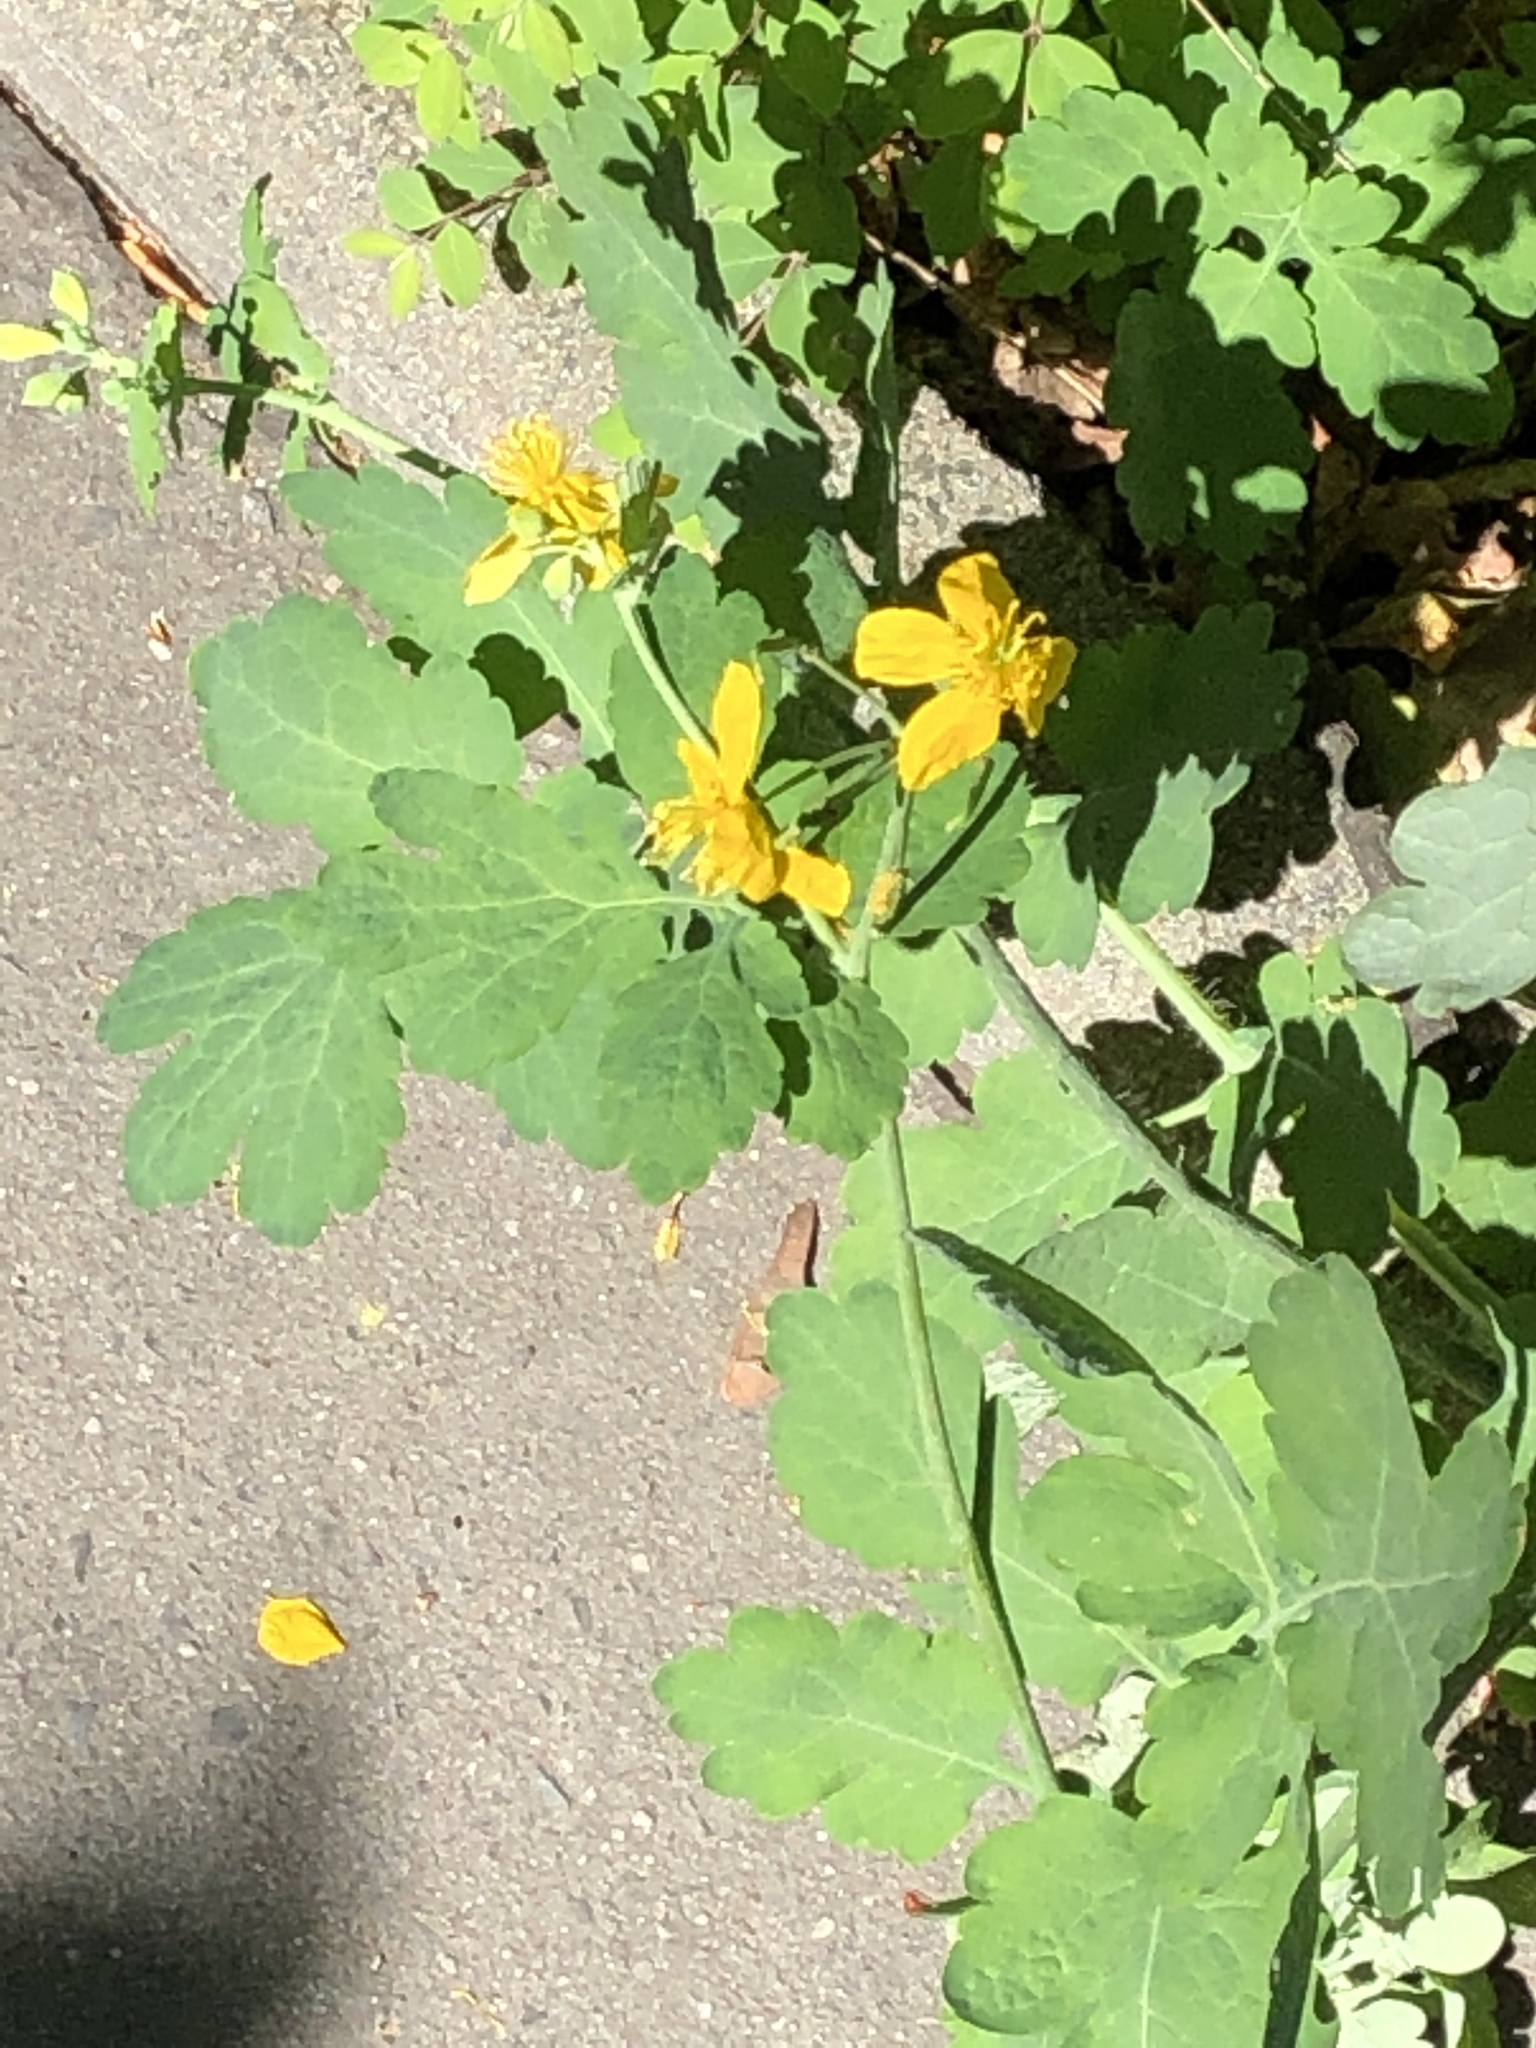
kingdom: Plantae
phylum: Tracheophyta
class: Magnoliopsida
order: Ranunculales
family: Papaveraceae
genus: Chelidonium
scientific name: Chelidonium majus
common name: Greater celandine
